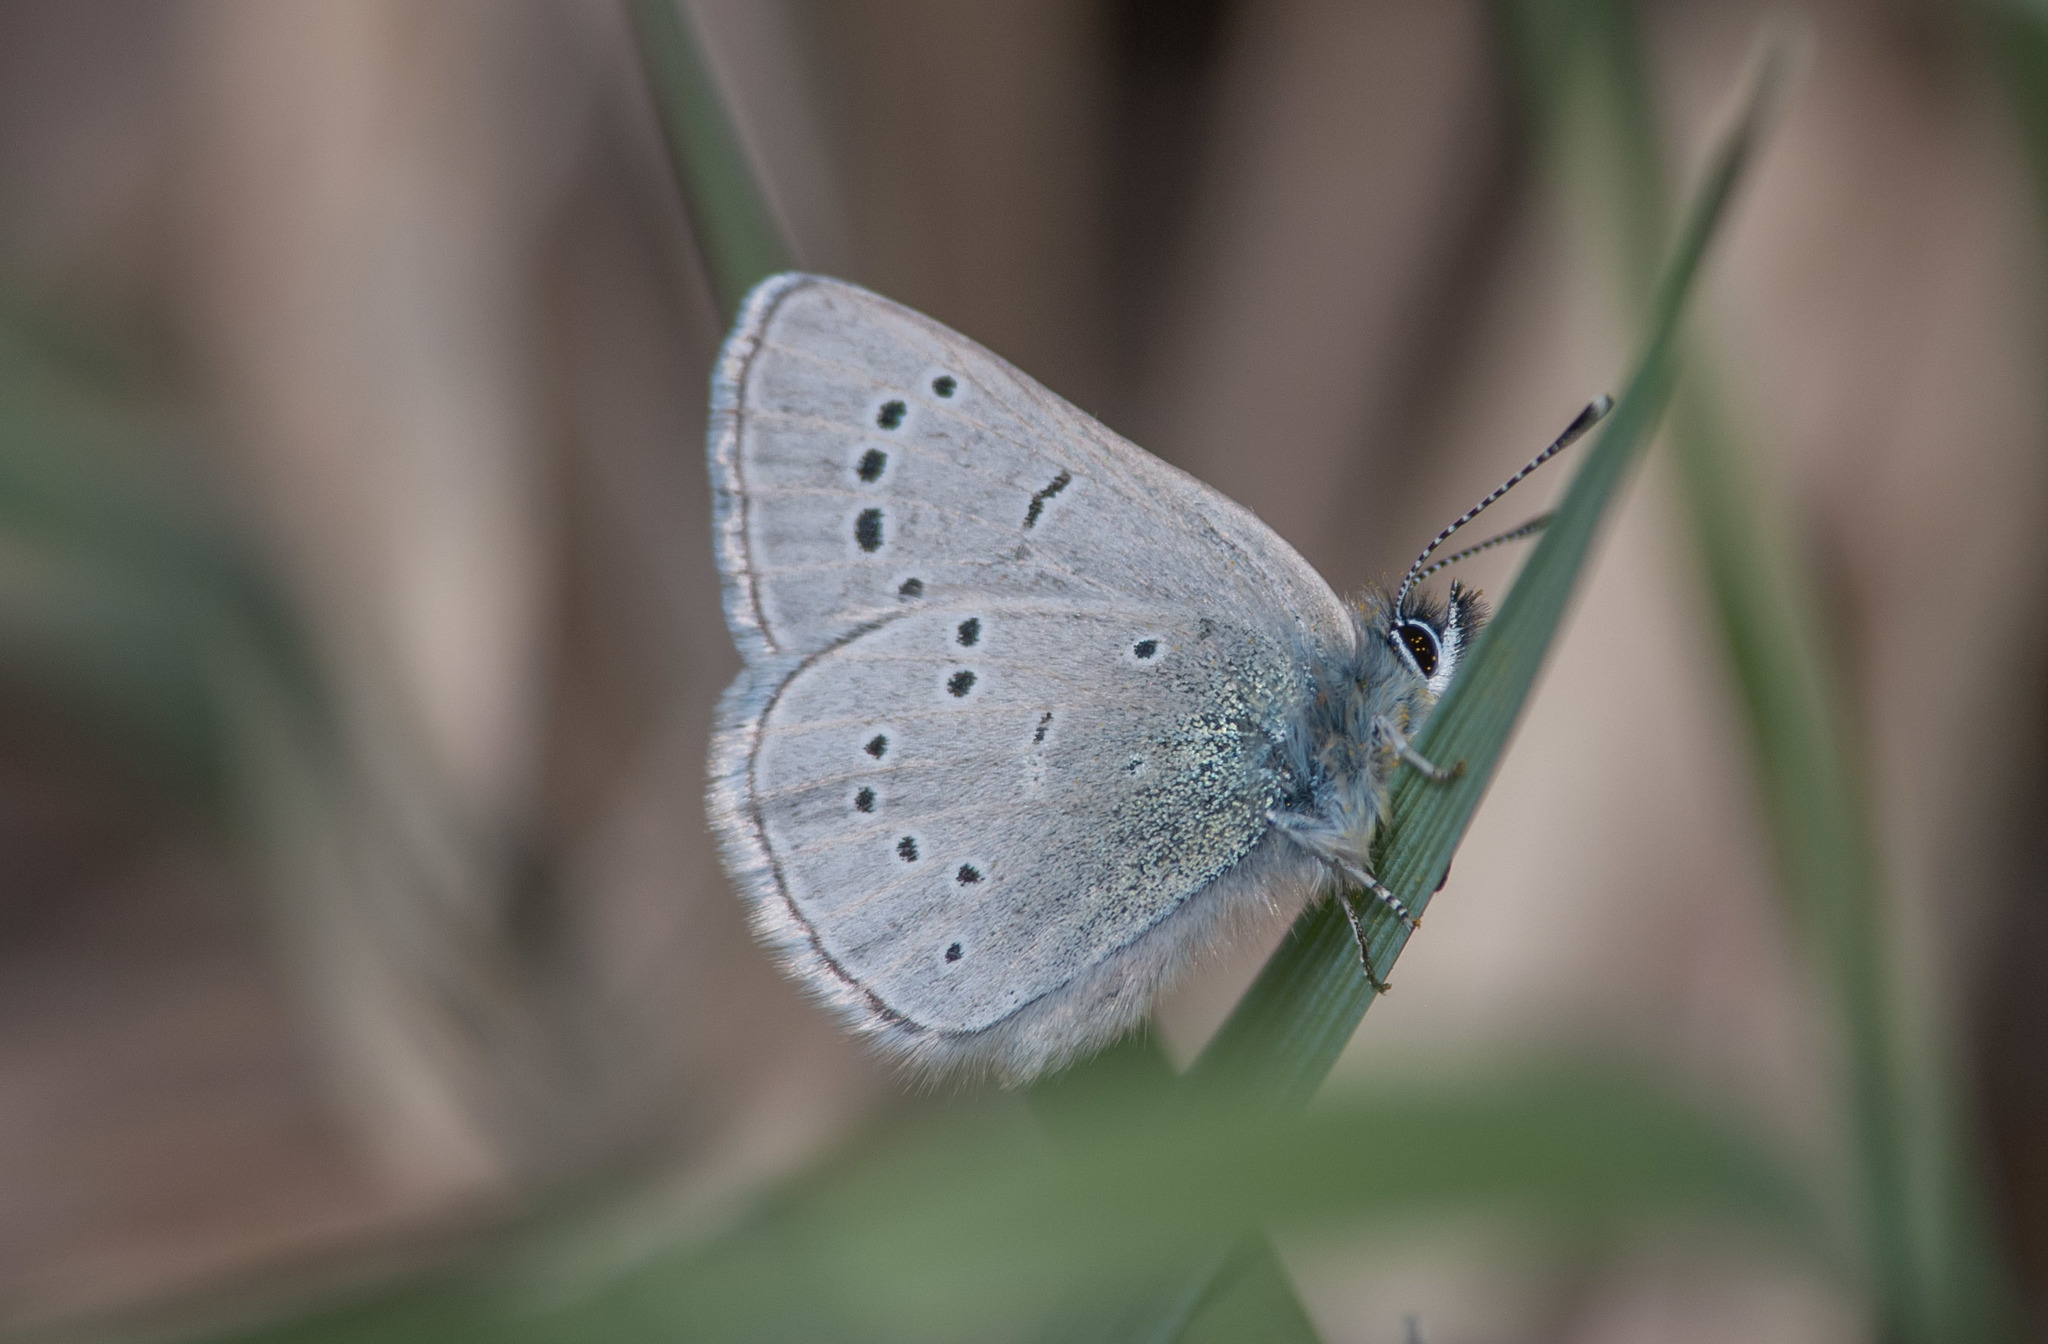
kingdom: Animalia
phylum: Arthropoda
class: Insecta
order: Lepidoptera
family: Lycaenidae
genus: Glaucopsyche
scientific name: Glaucopsyche lygdamus
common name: Silvery blue
